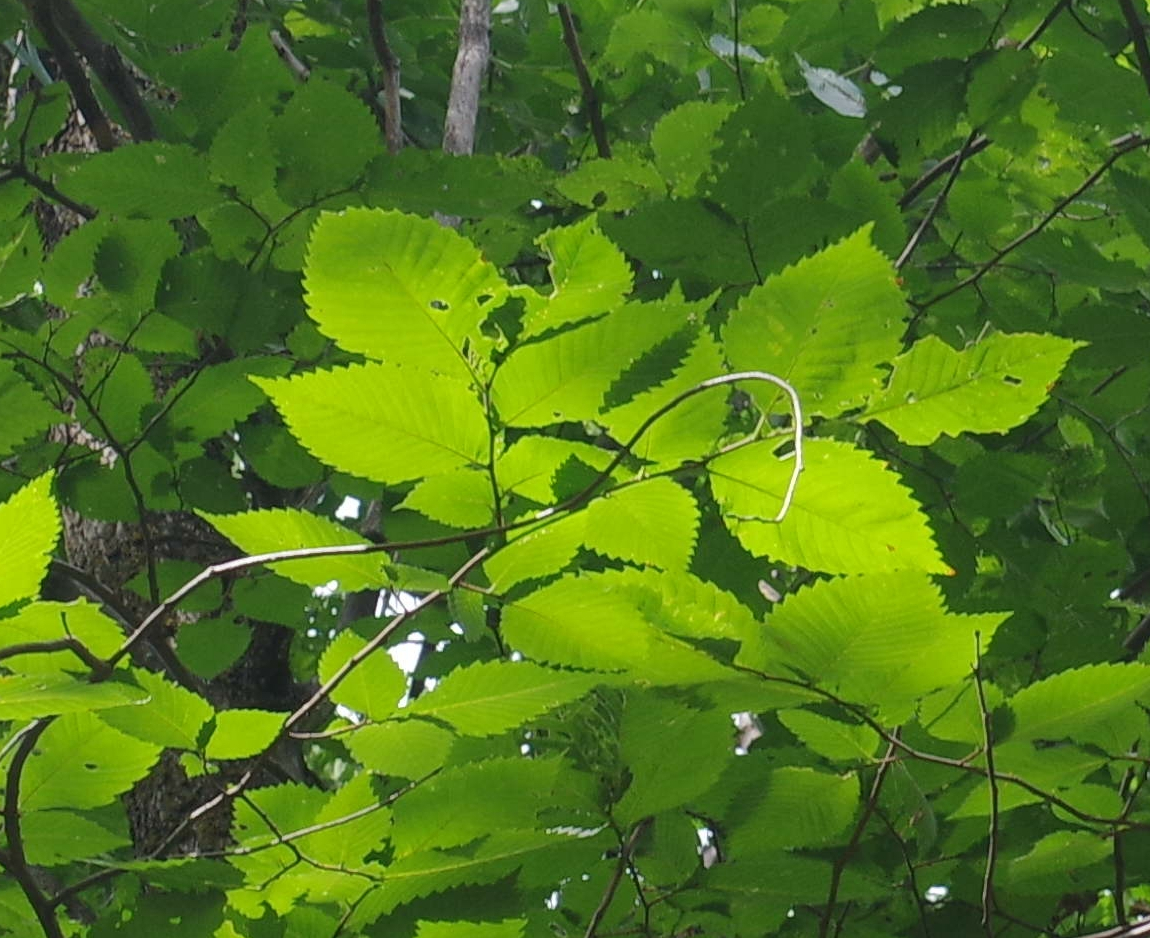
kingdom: Plantae
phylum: Tracheophyta
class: Magnoliopsida
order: Rosales
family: Ulmaceae
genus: Ulmus
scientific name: Ulmus americana
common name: American elm
